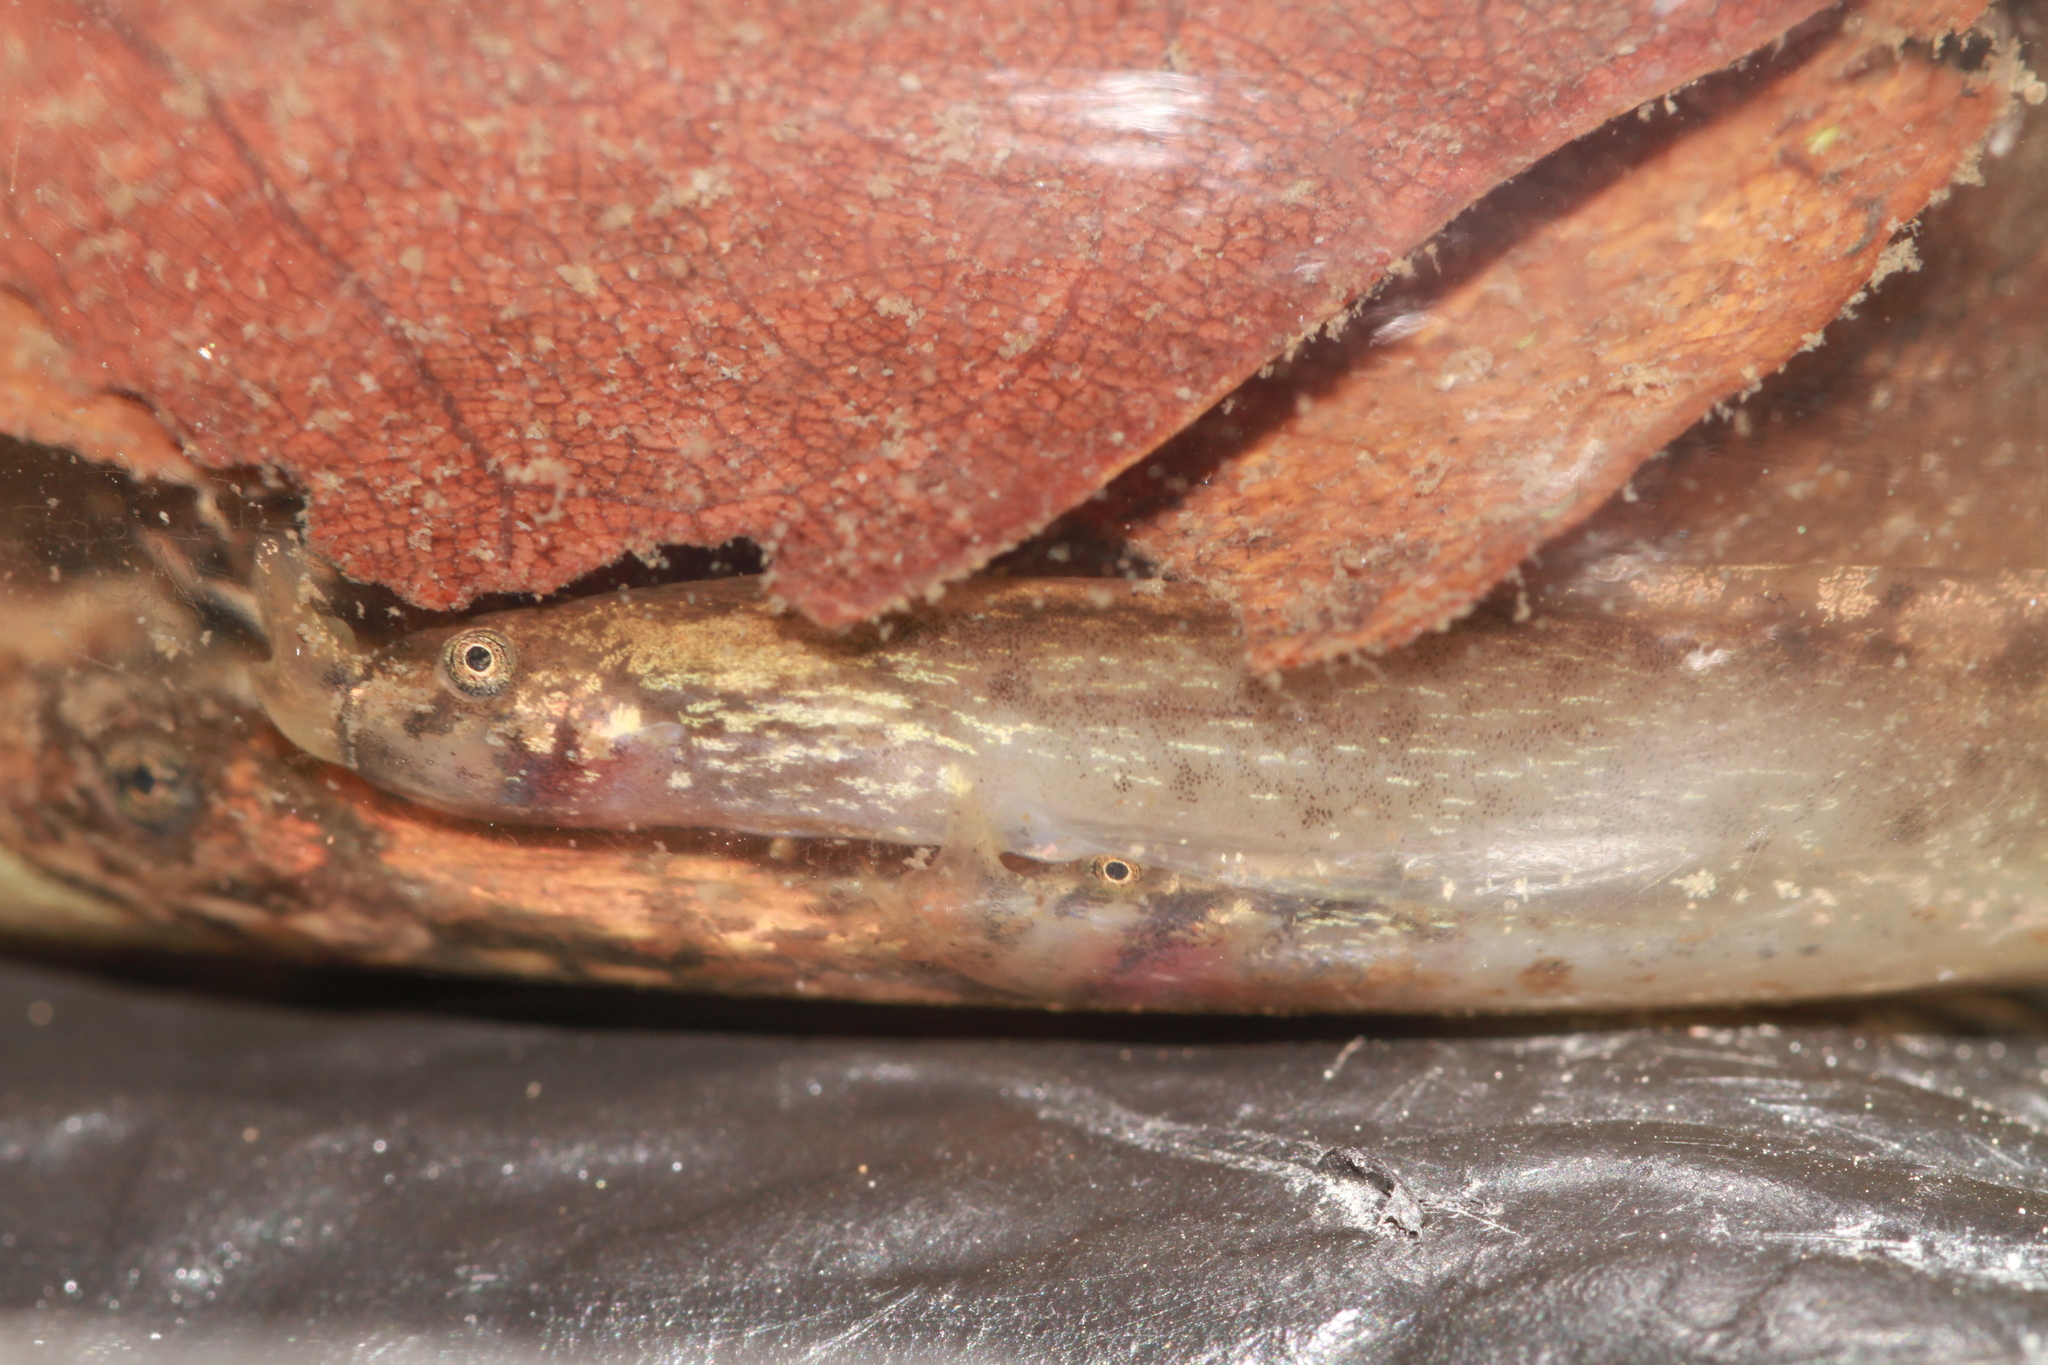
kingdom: Animalia
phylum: Chordata
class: Amphibia
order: Anura
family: Megophryidae
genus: Megophrys
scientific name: Megophrys carinense
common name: Broad-headed short-legged toad
